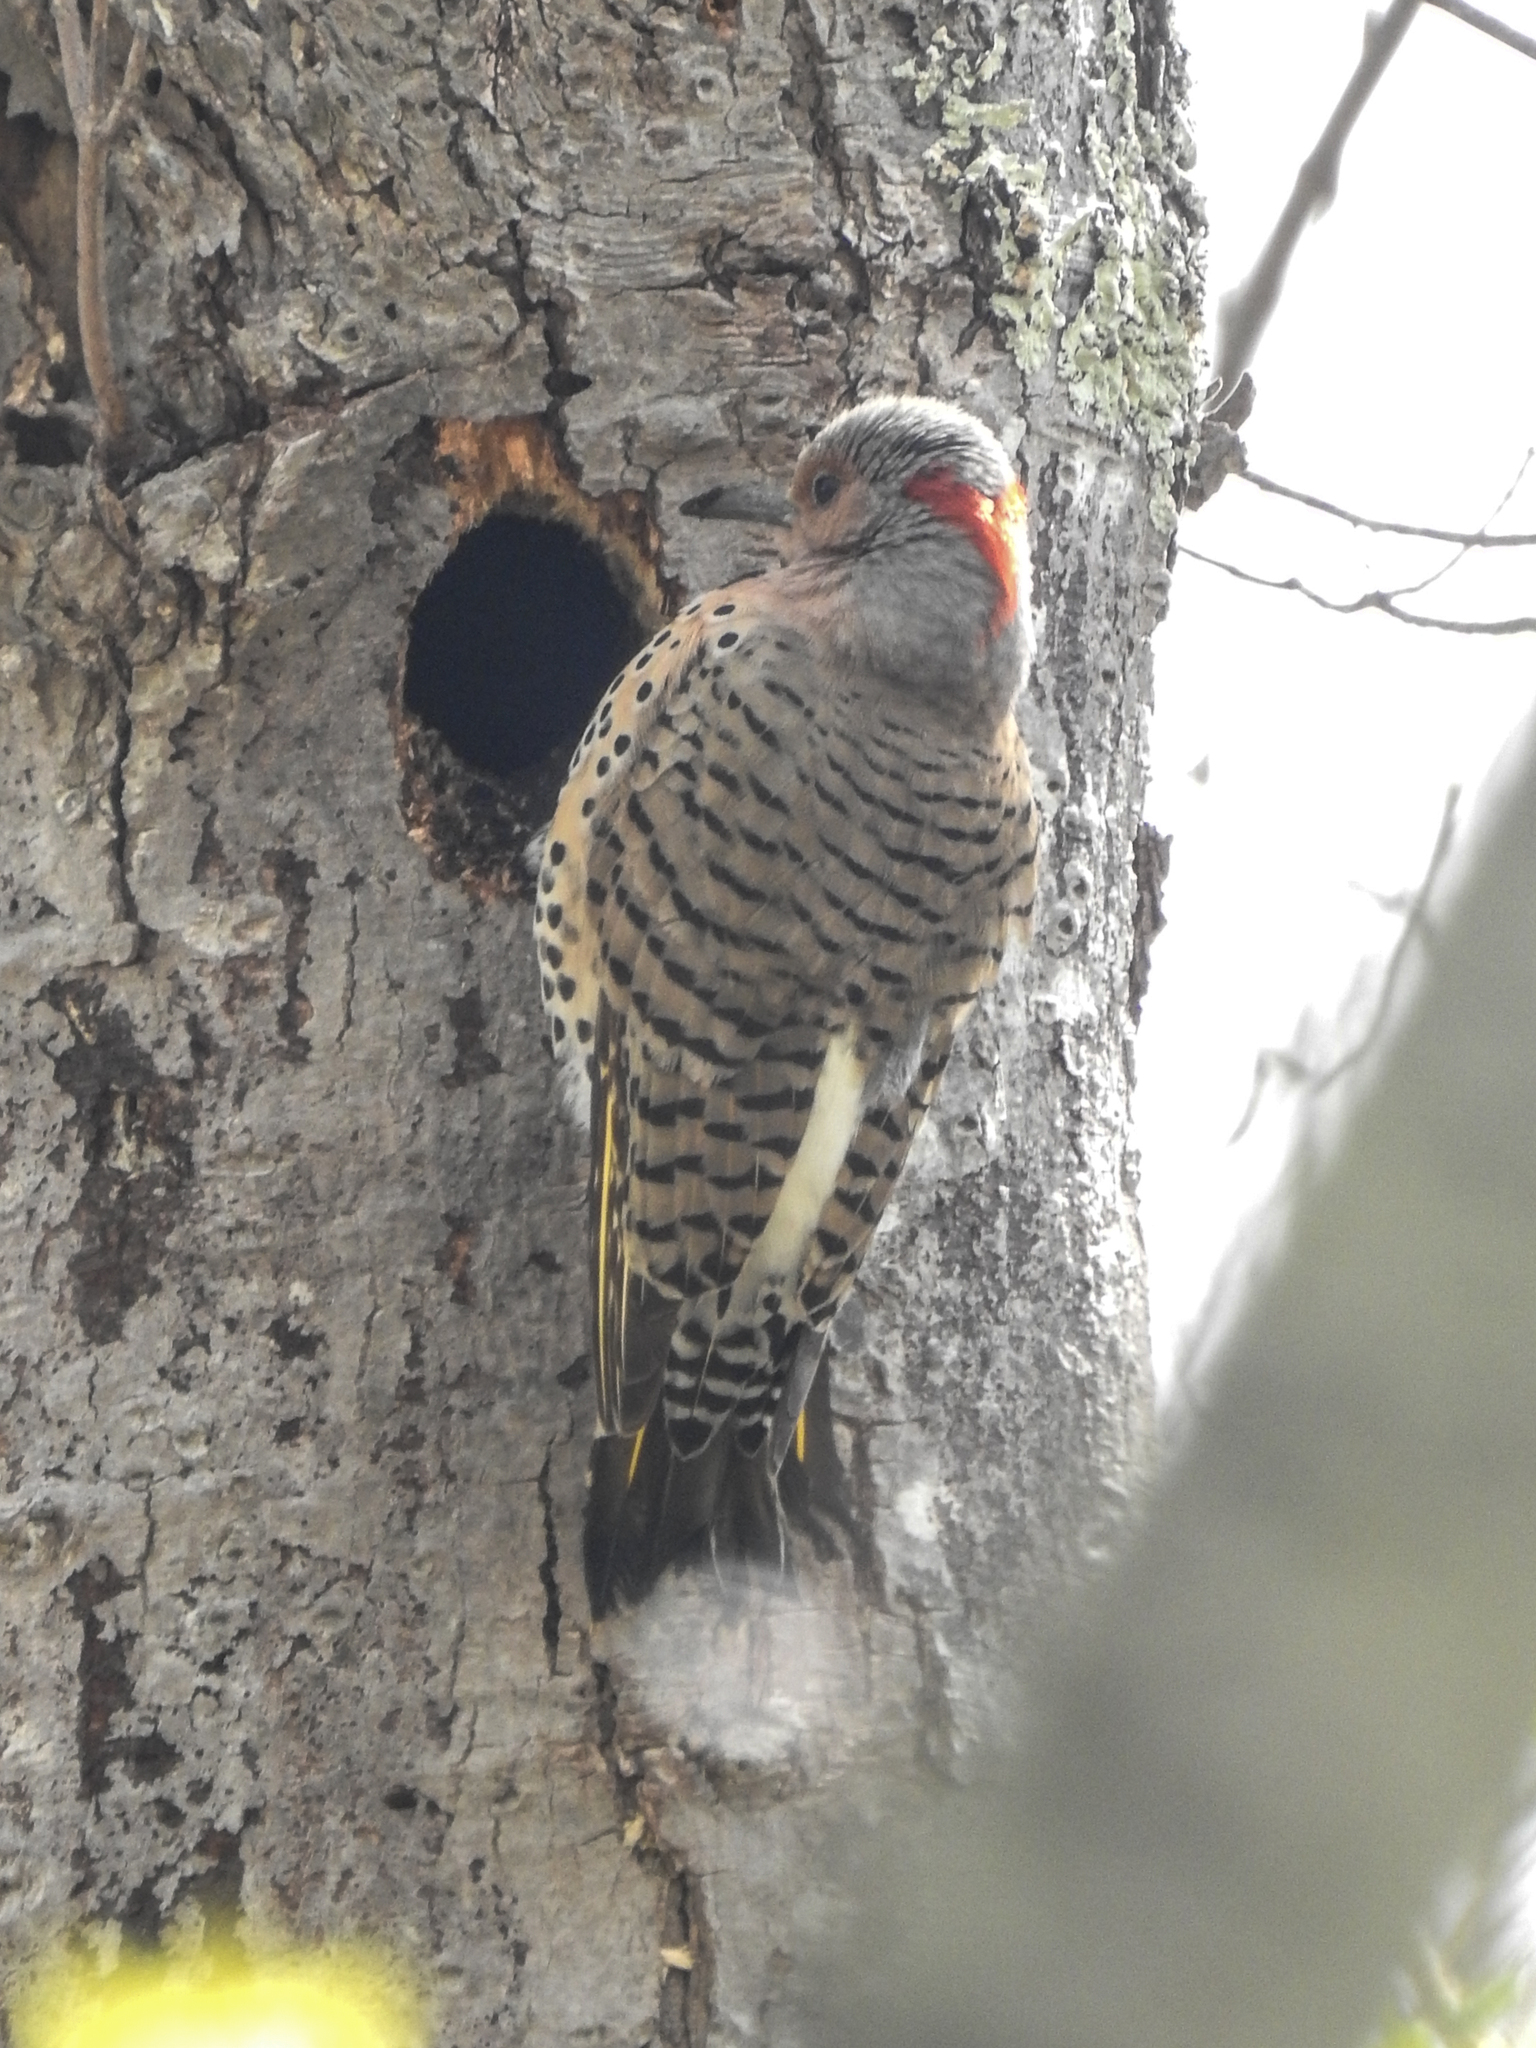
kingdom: Animalia
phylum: Chordata
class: Aves
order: Piciformes
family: Picidae
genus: Colaptes
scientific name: Colaptes auratus
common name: Northern flicker
